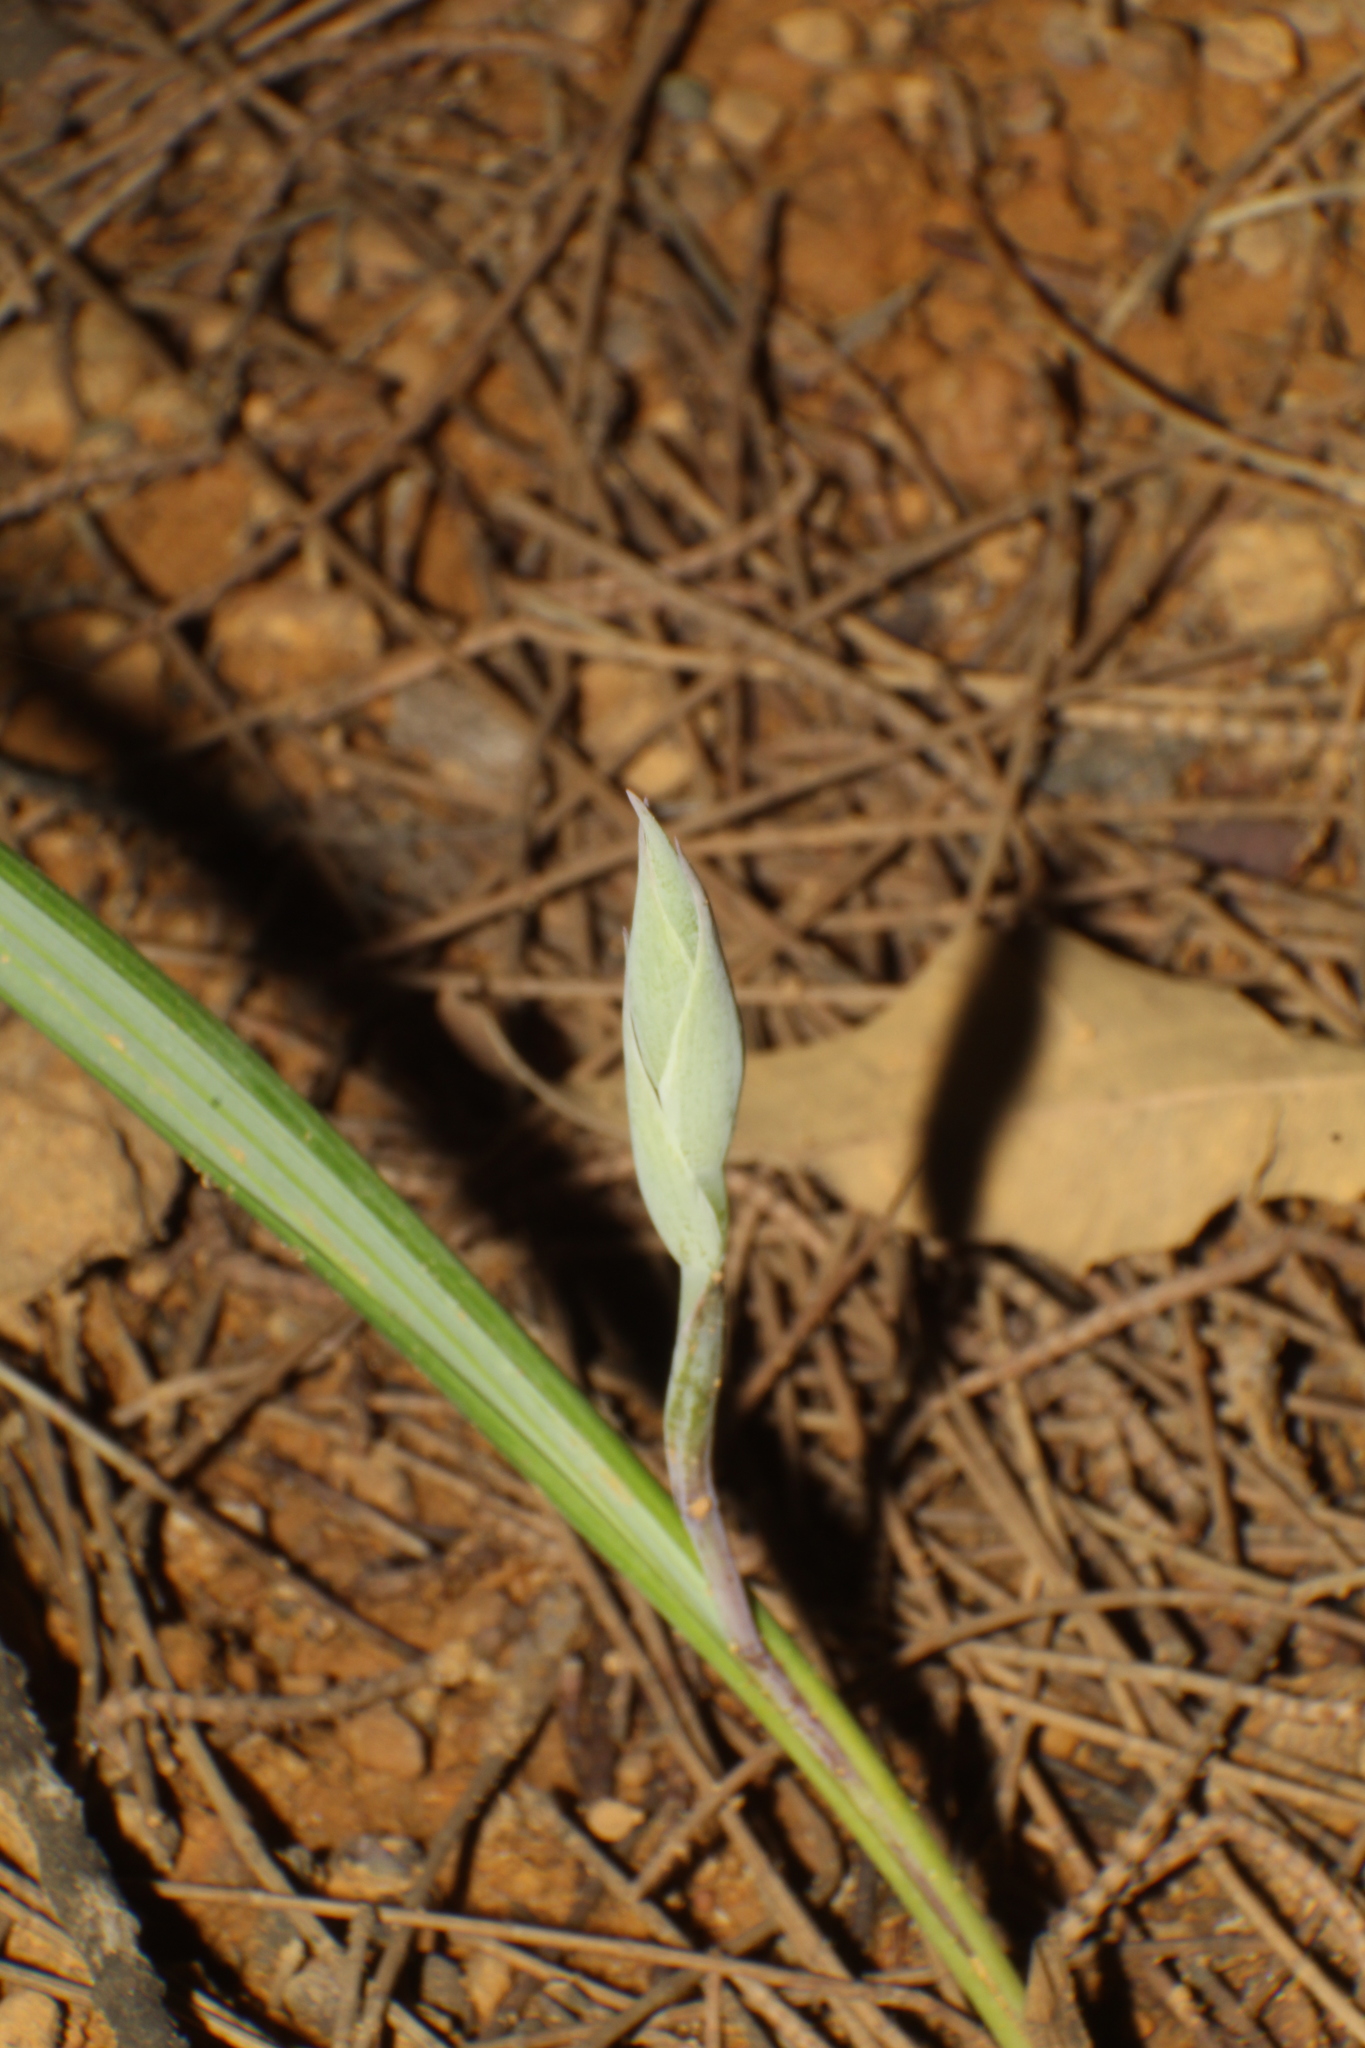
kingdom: Plantae
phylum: Tracheophyta
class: Liliopsida
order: Asparagales
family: Orchidaceae
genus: Lyperanthus
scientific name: Lyperanthus serratus
